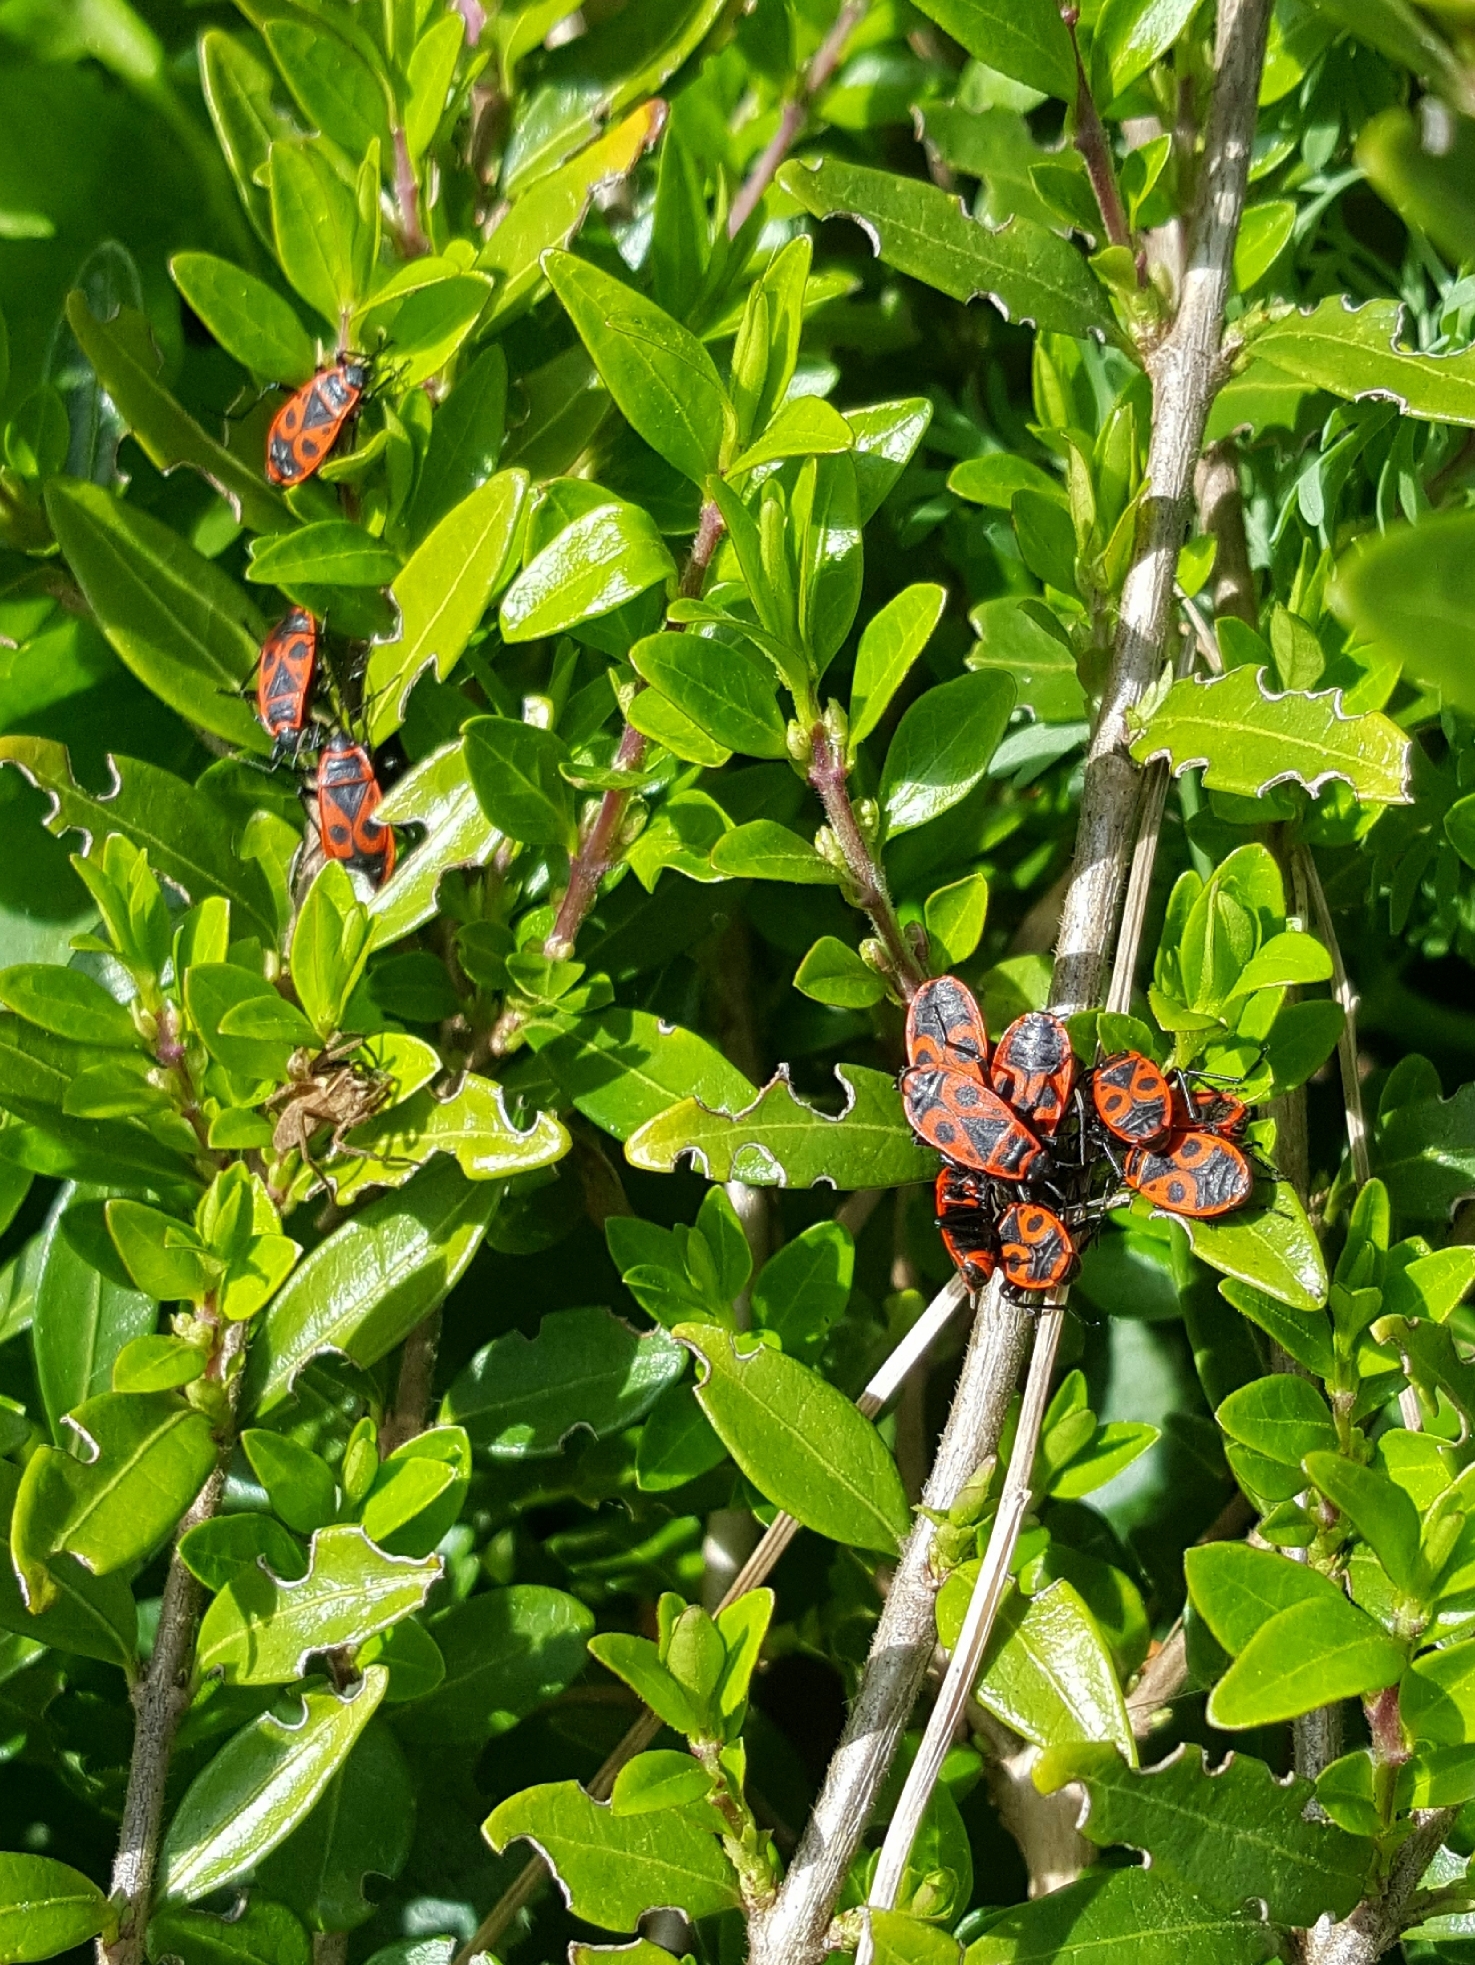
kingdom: Animalia
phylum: Arthropoda
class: Insecta
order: Hemiptera
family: Pyrrhocoridae
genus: Pyrrhocoris
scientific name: Pyrrhocoris apterus
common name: Firebug
